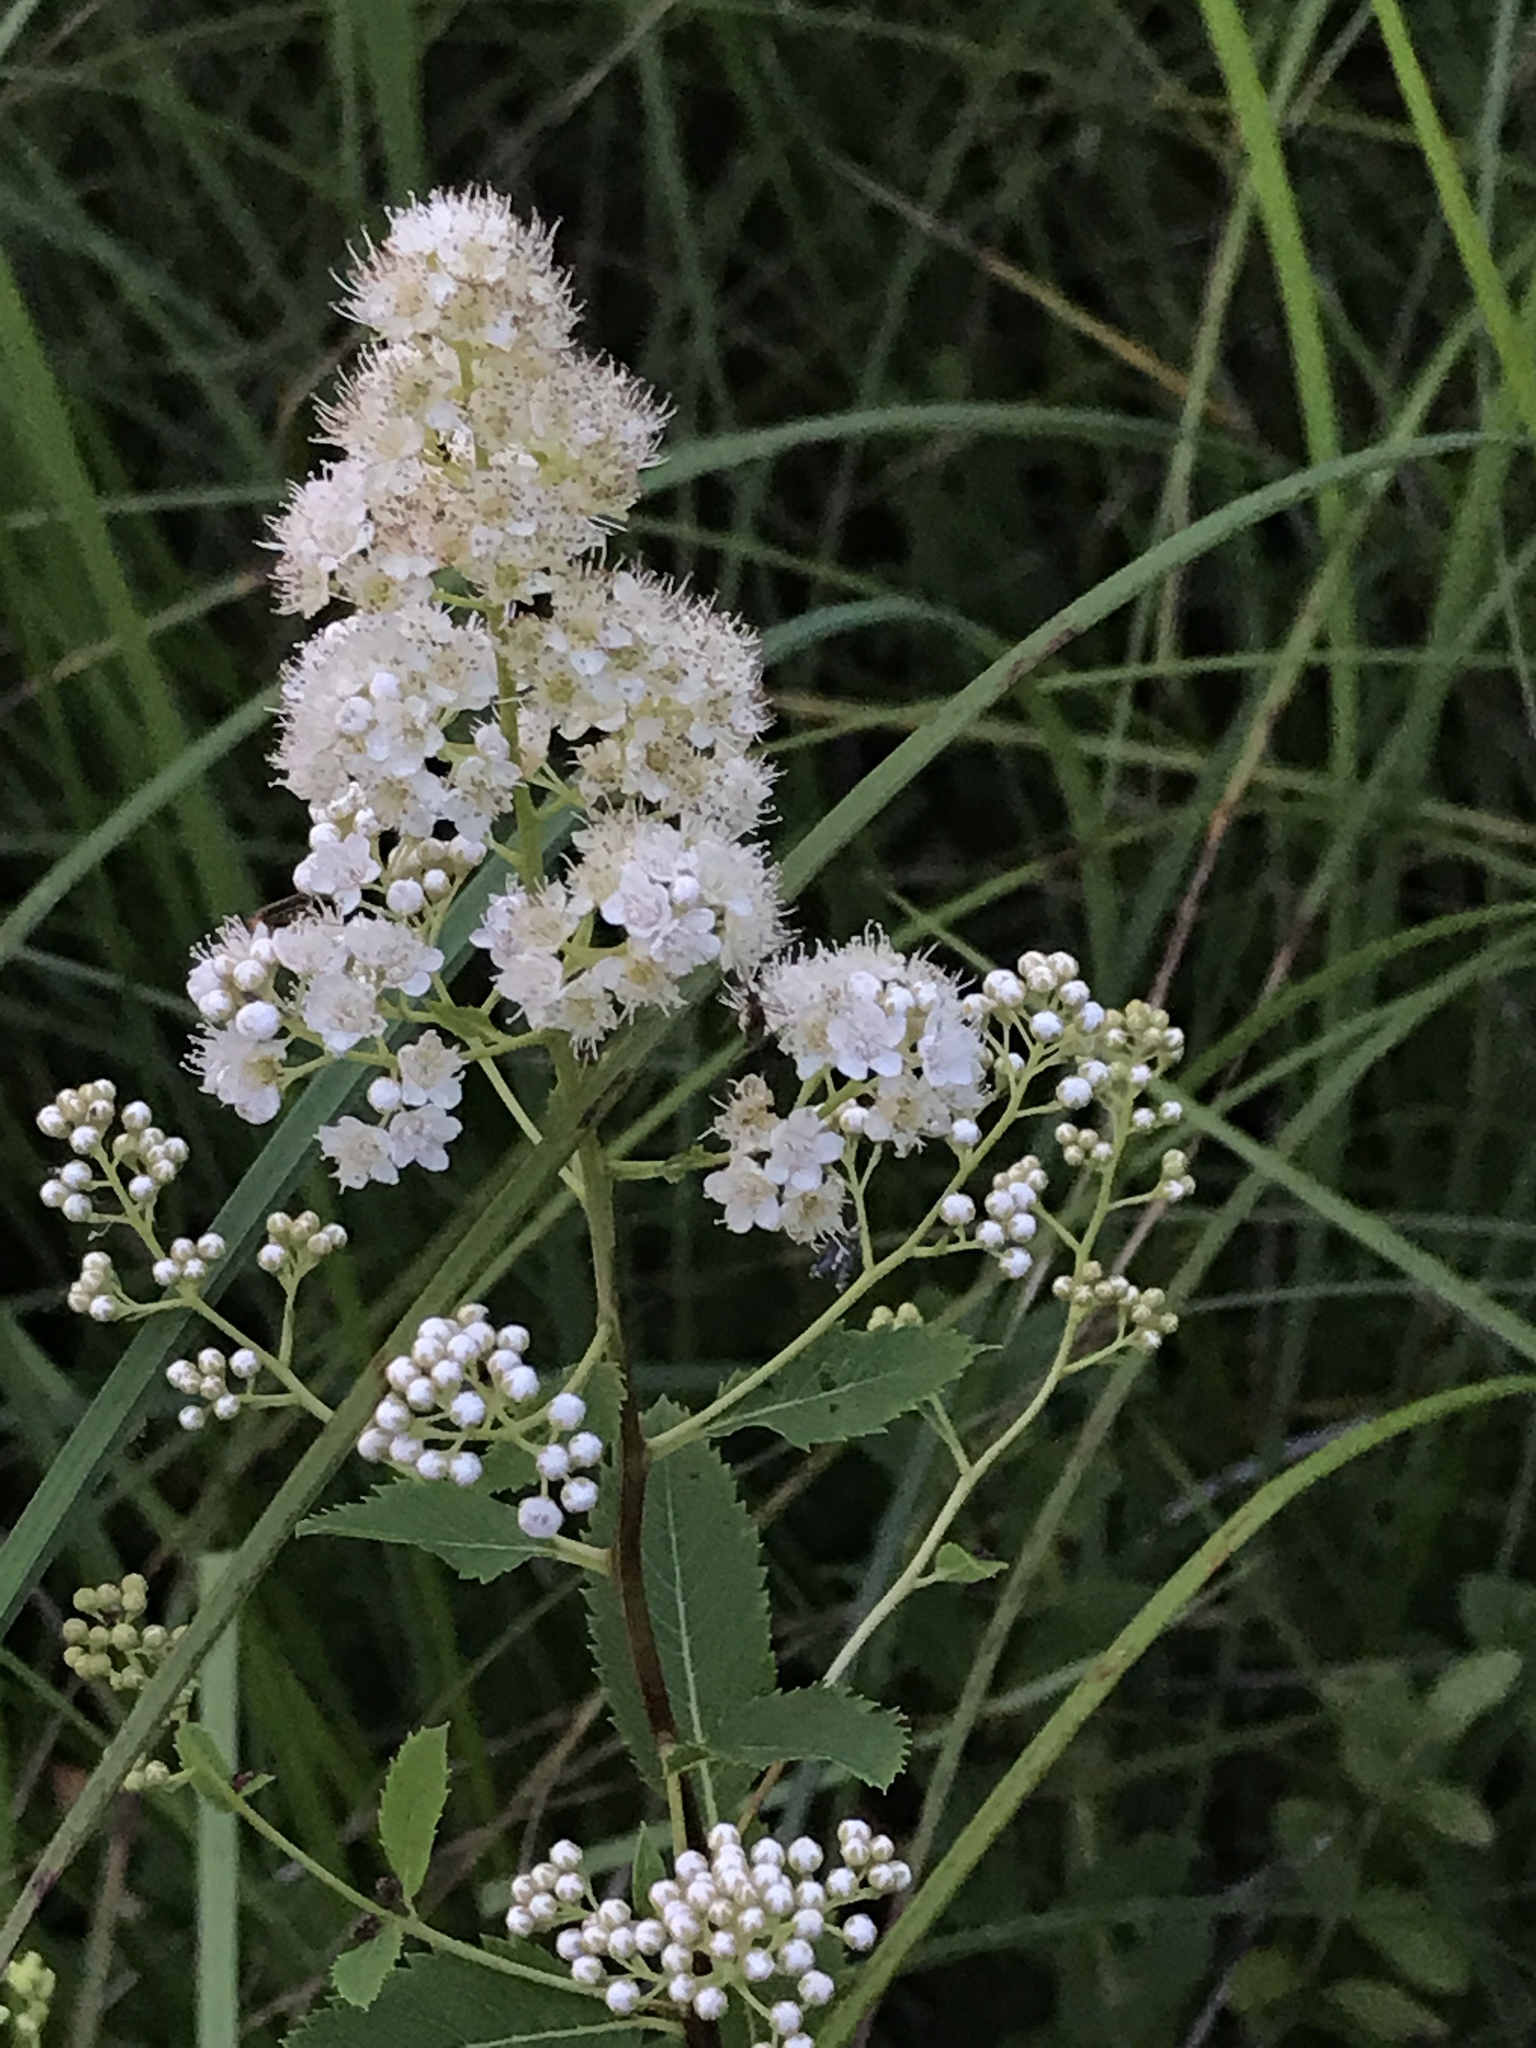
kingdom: Plantae
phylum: Tracheophyta
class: Magnoliopsida
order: Rosales
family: Rosaceae
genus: Spiraea
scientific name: Spiraea alba
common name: Pale bridewort
